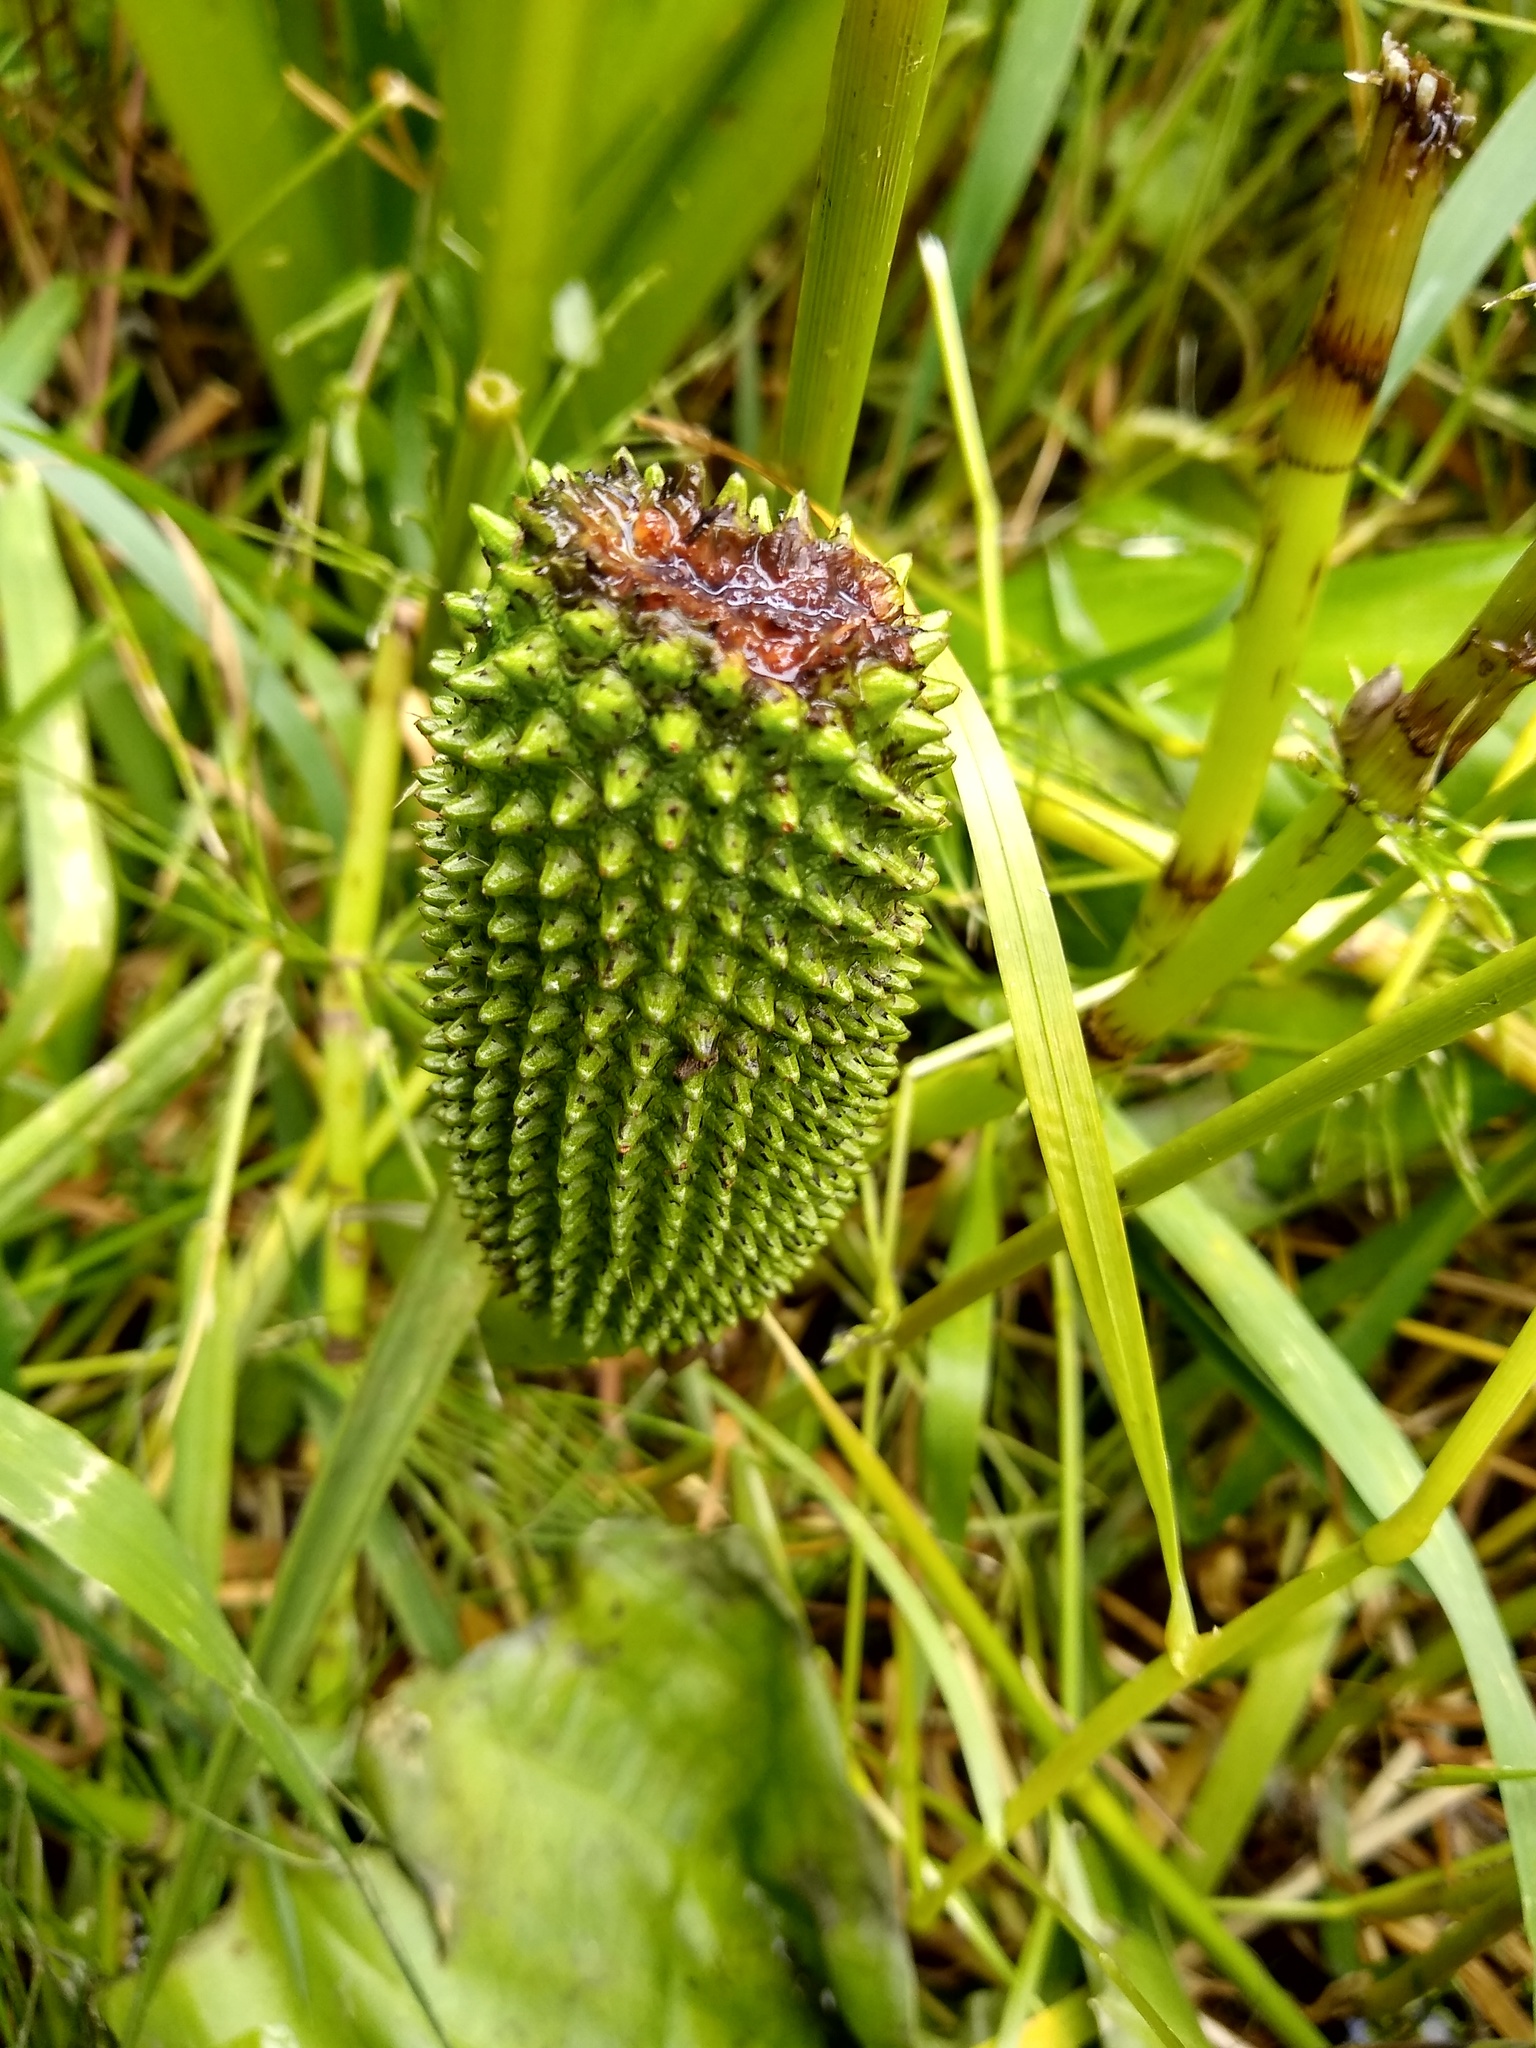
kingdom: Plantae
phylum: Tracheophyta
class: Liliopsida
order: Alismatales
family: Araceae
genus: Lysichiton
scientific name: Lysichiton americanus
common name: American skunk cabbage
